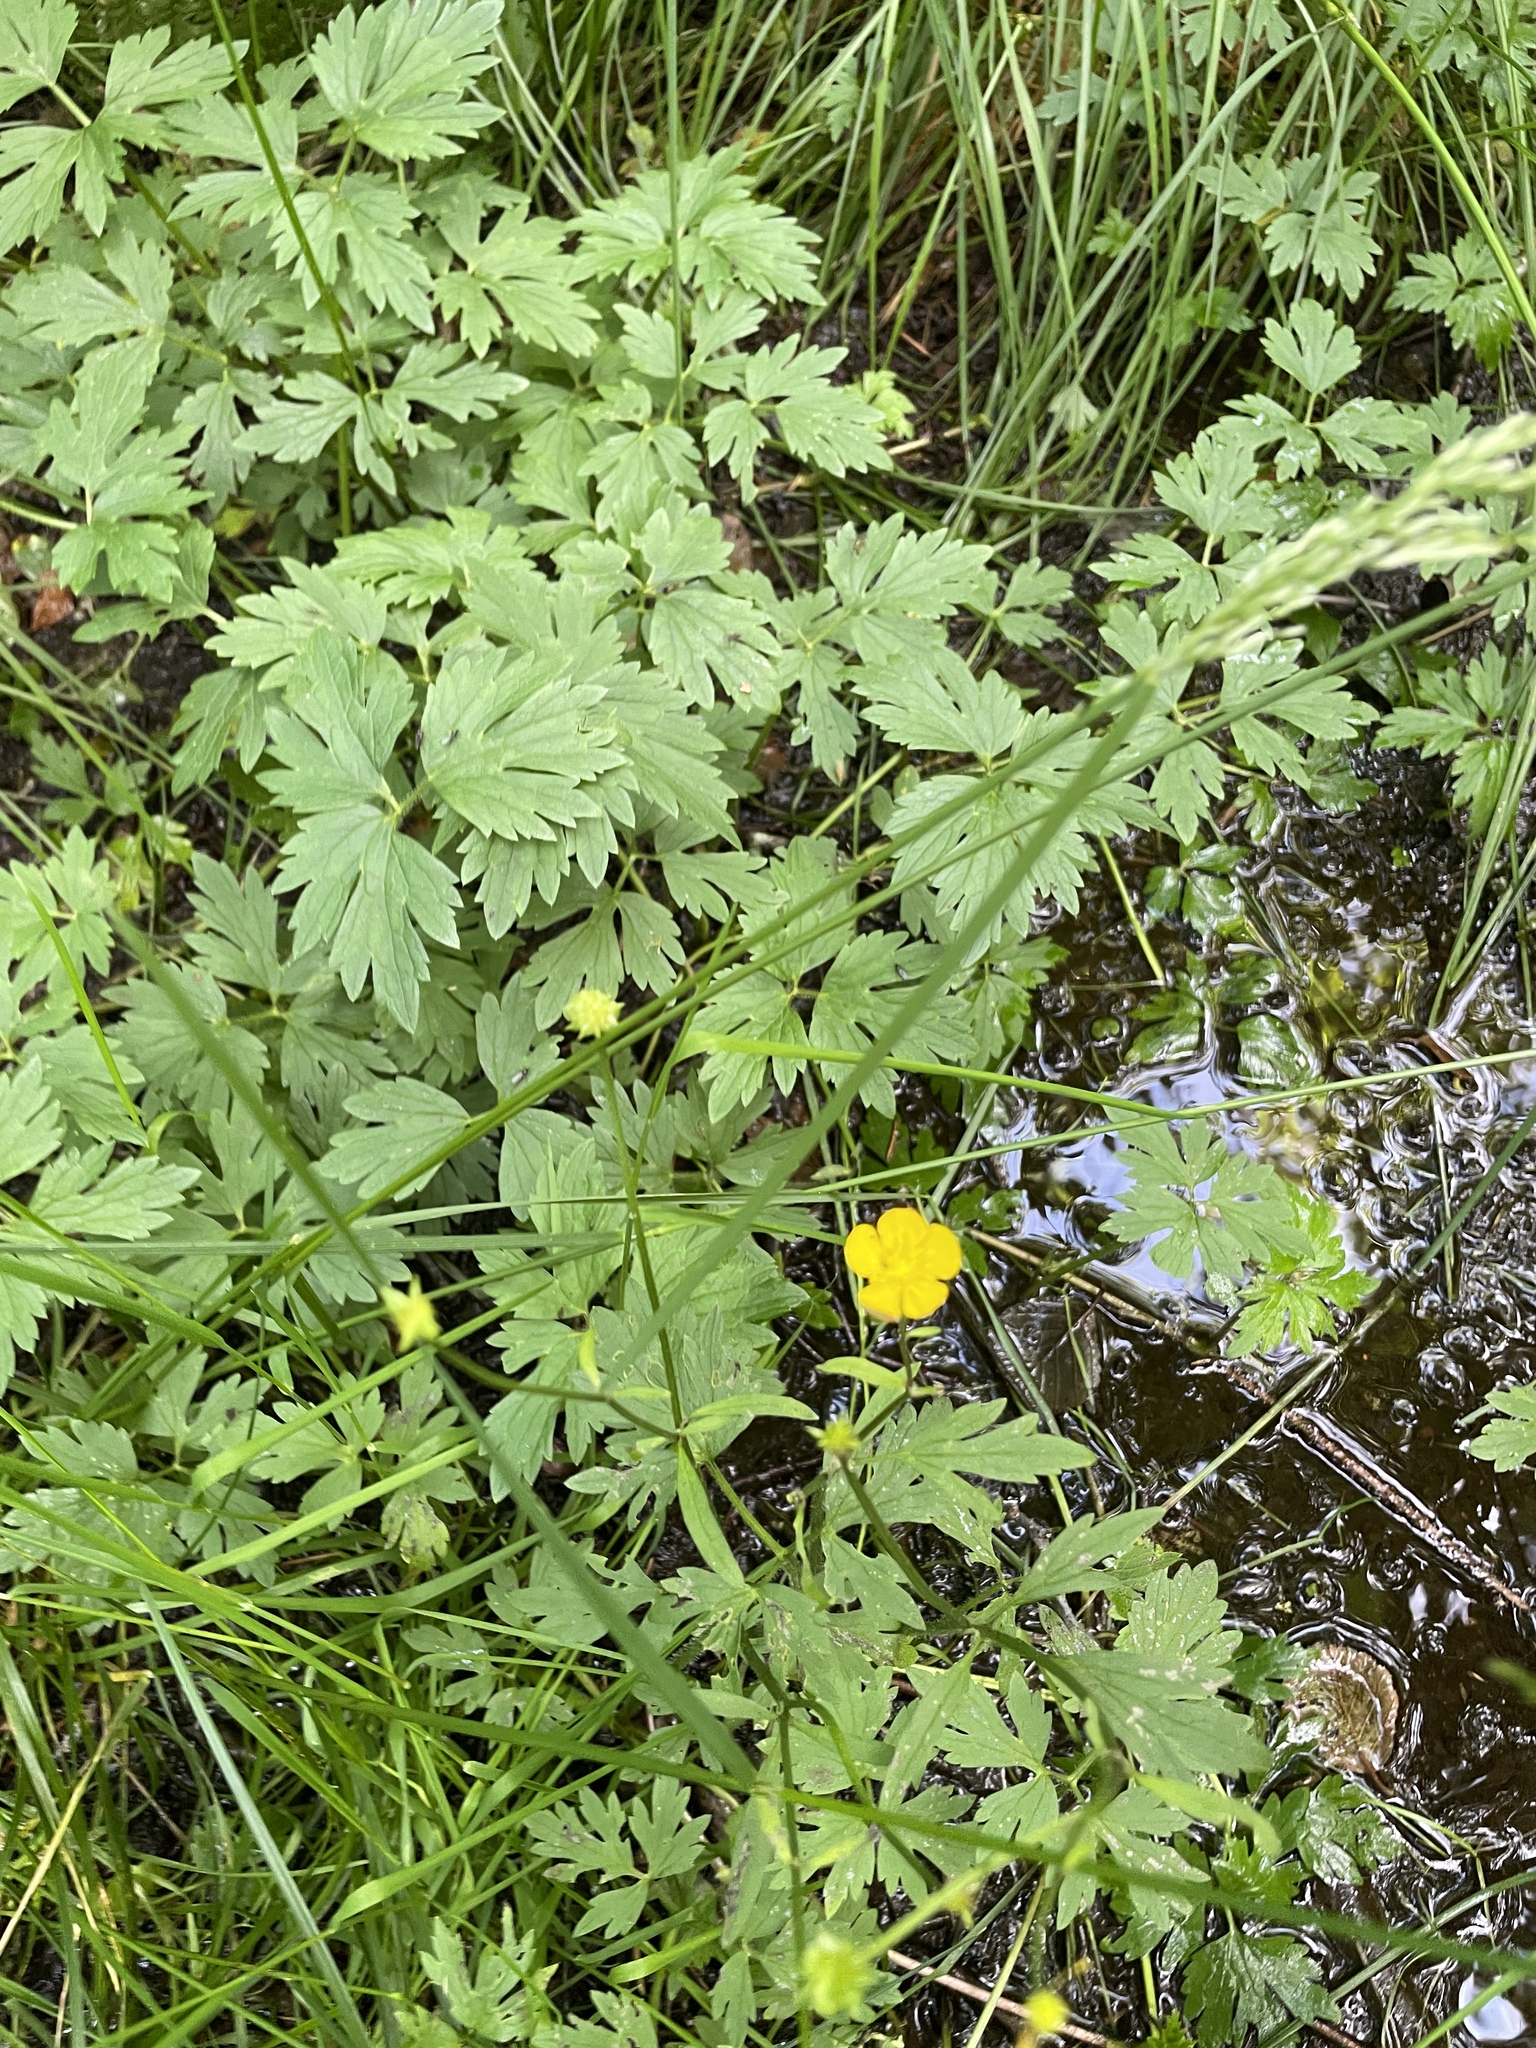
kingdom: Plantae
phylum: Tracheophyta
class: Magnoliopsida
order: Ranunculales
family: Ranunculaceae
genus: Ranunculus
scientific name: Ranunculus repens
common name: Creeping buttercup
